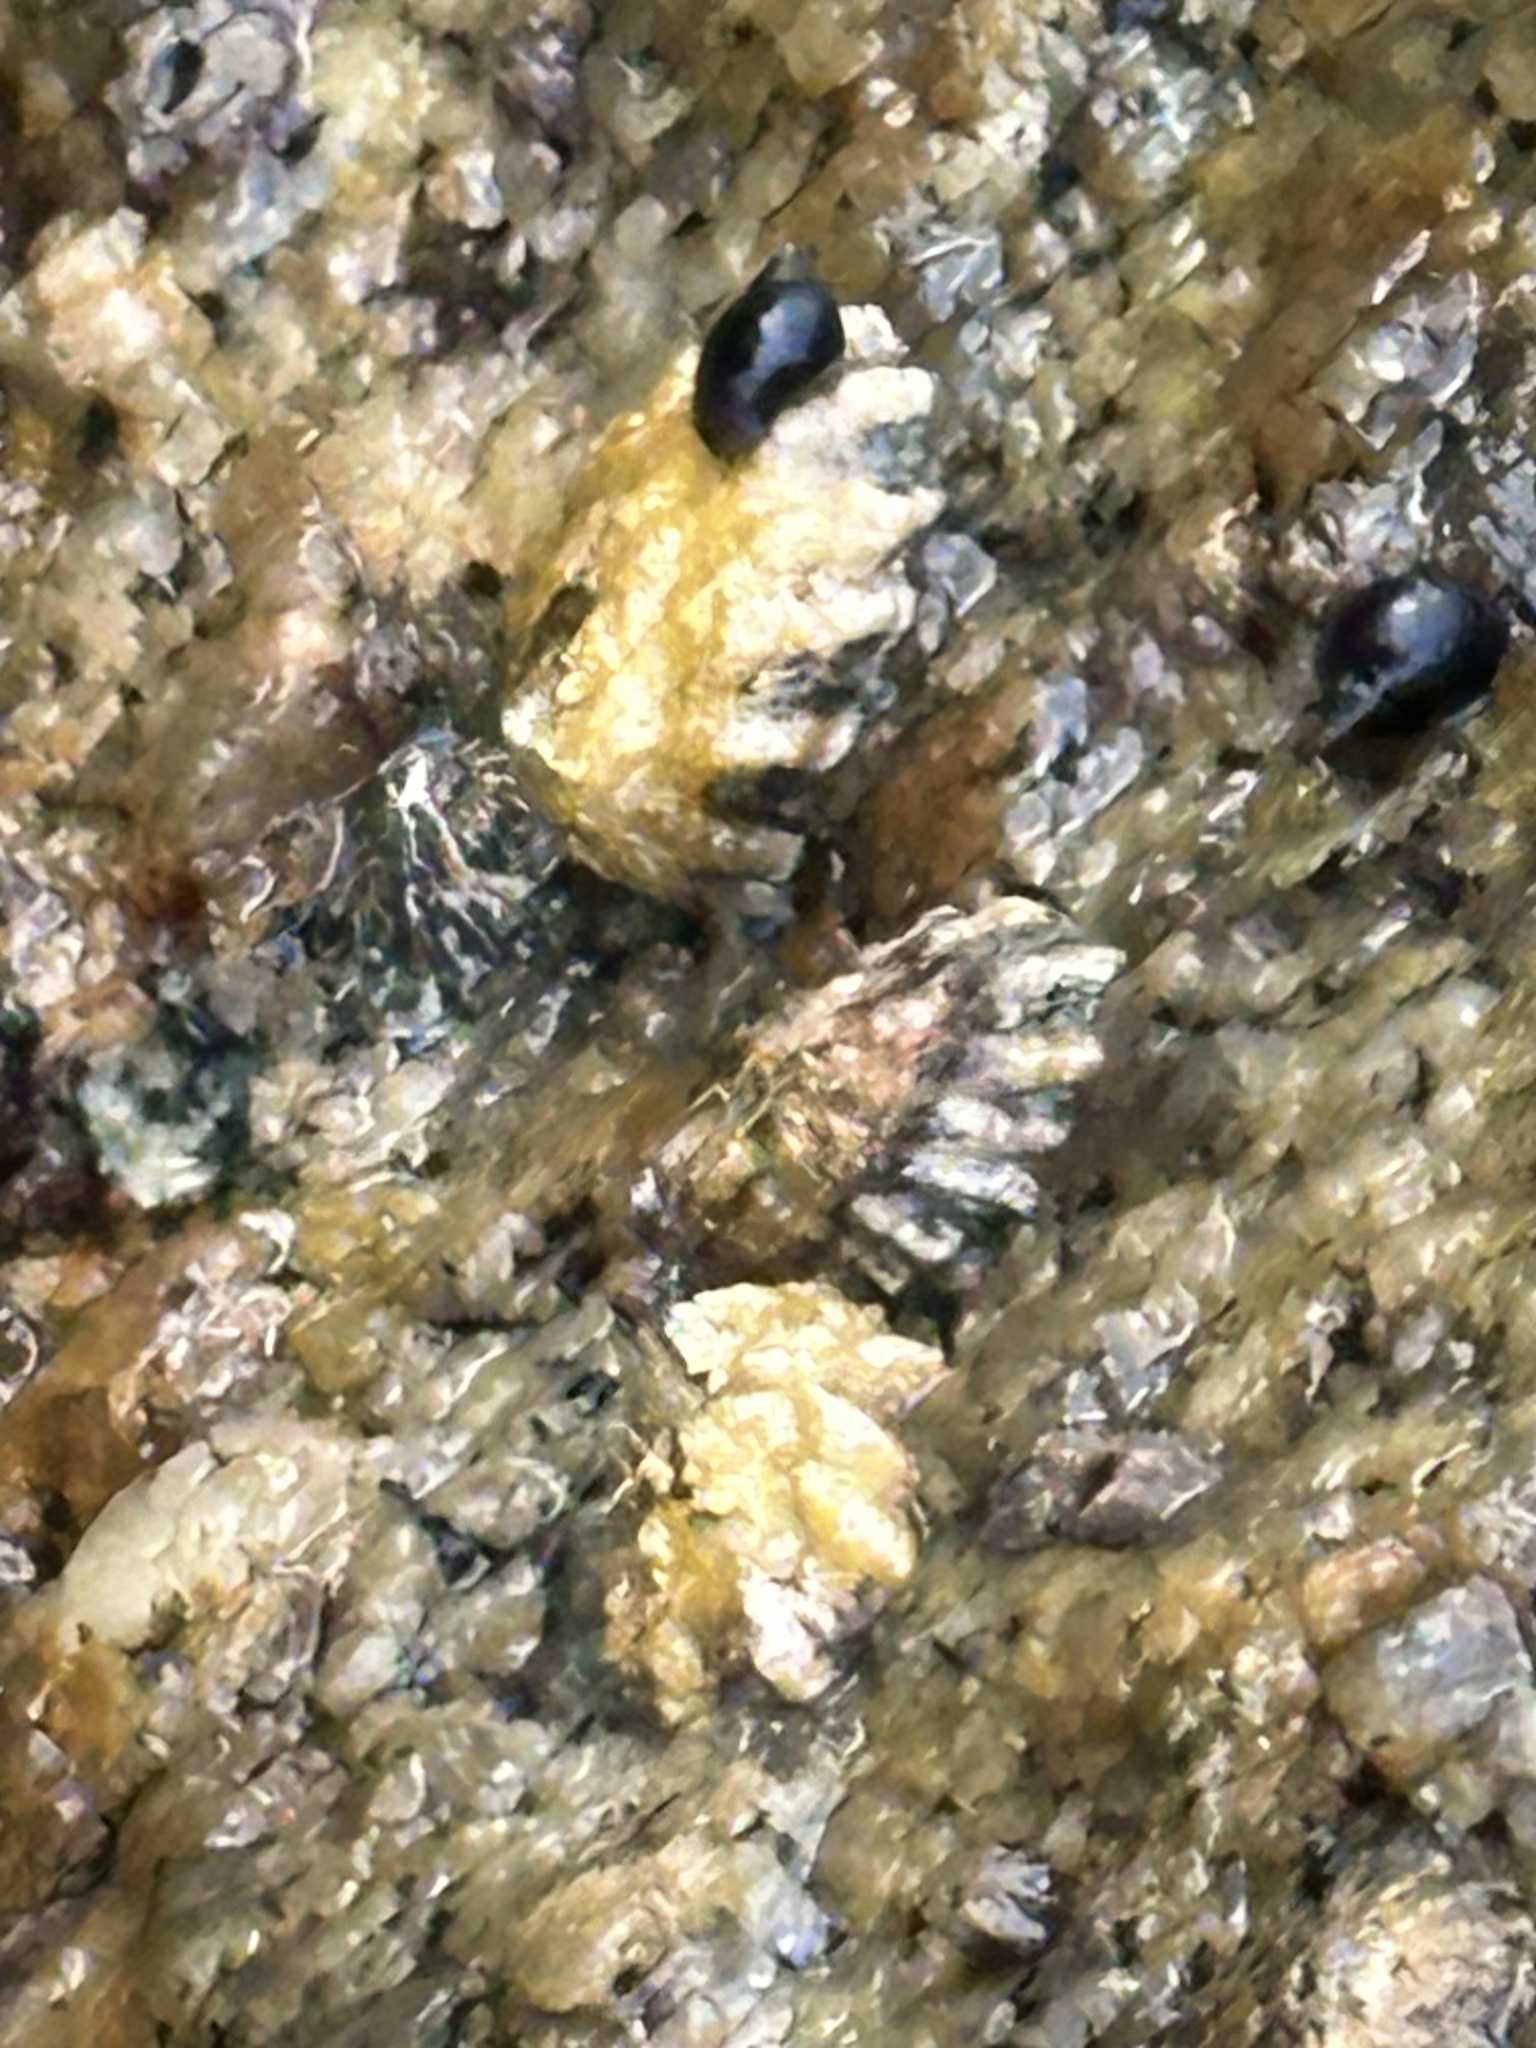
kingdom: Animalia
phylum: Mollusca
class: Gastropoda
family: Lottiidae
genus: Lottia
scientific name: Lottia scabra
